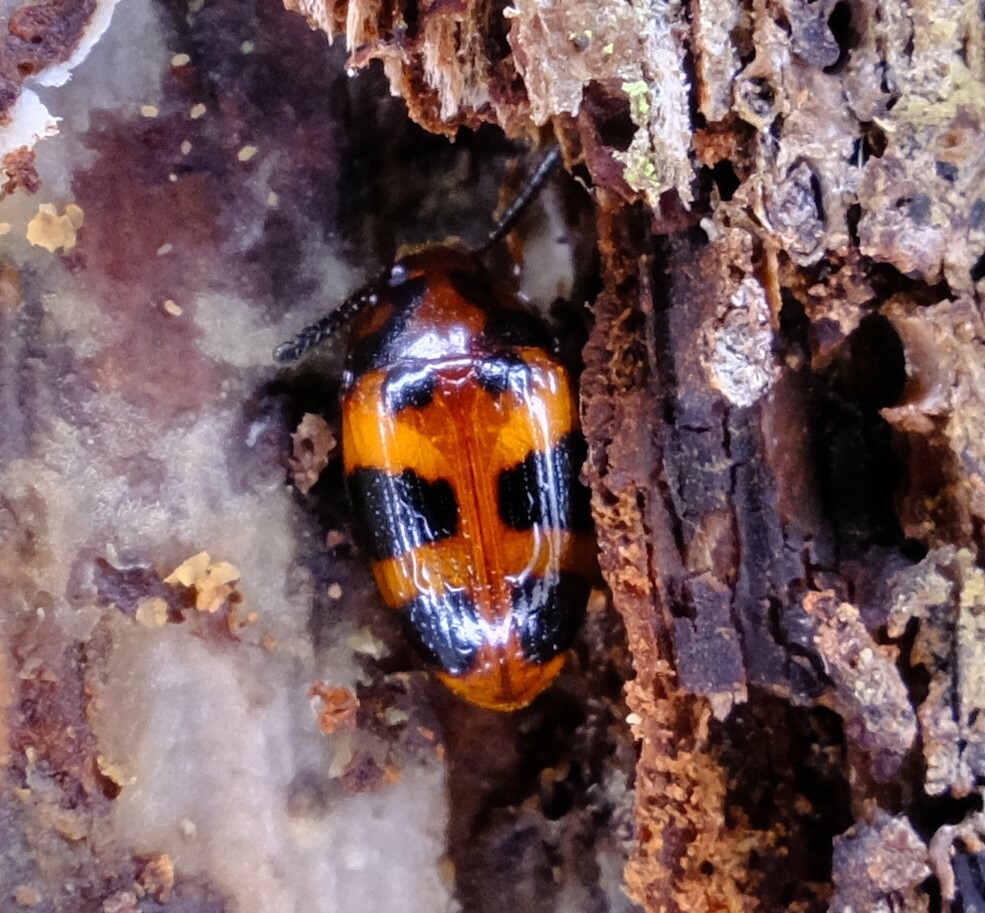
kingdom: Animalia
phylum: Arthropoda
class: Insecta
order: Coleoptera
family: Tenebrionidae
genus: Spiloscapha
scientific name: Spiloscapha
